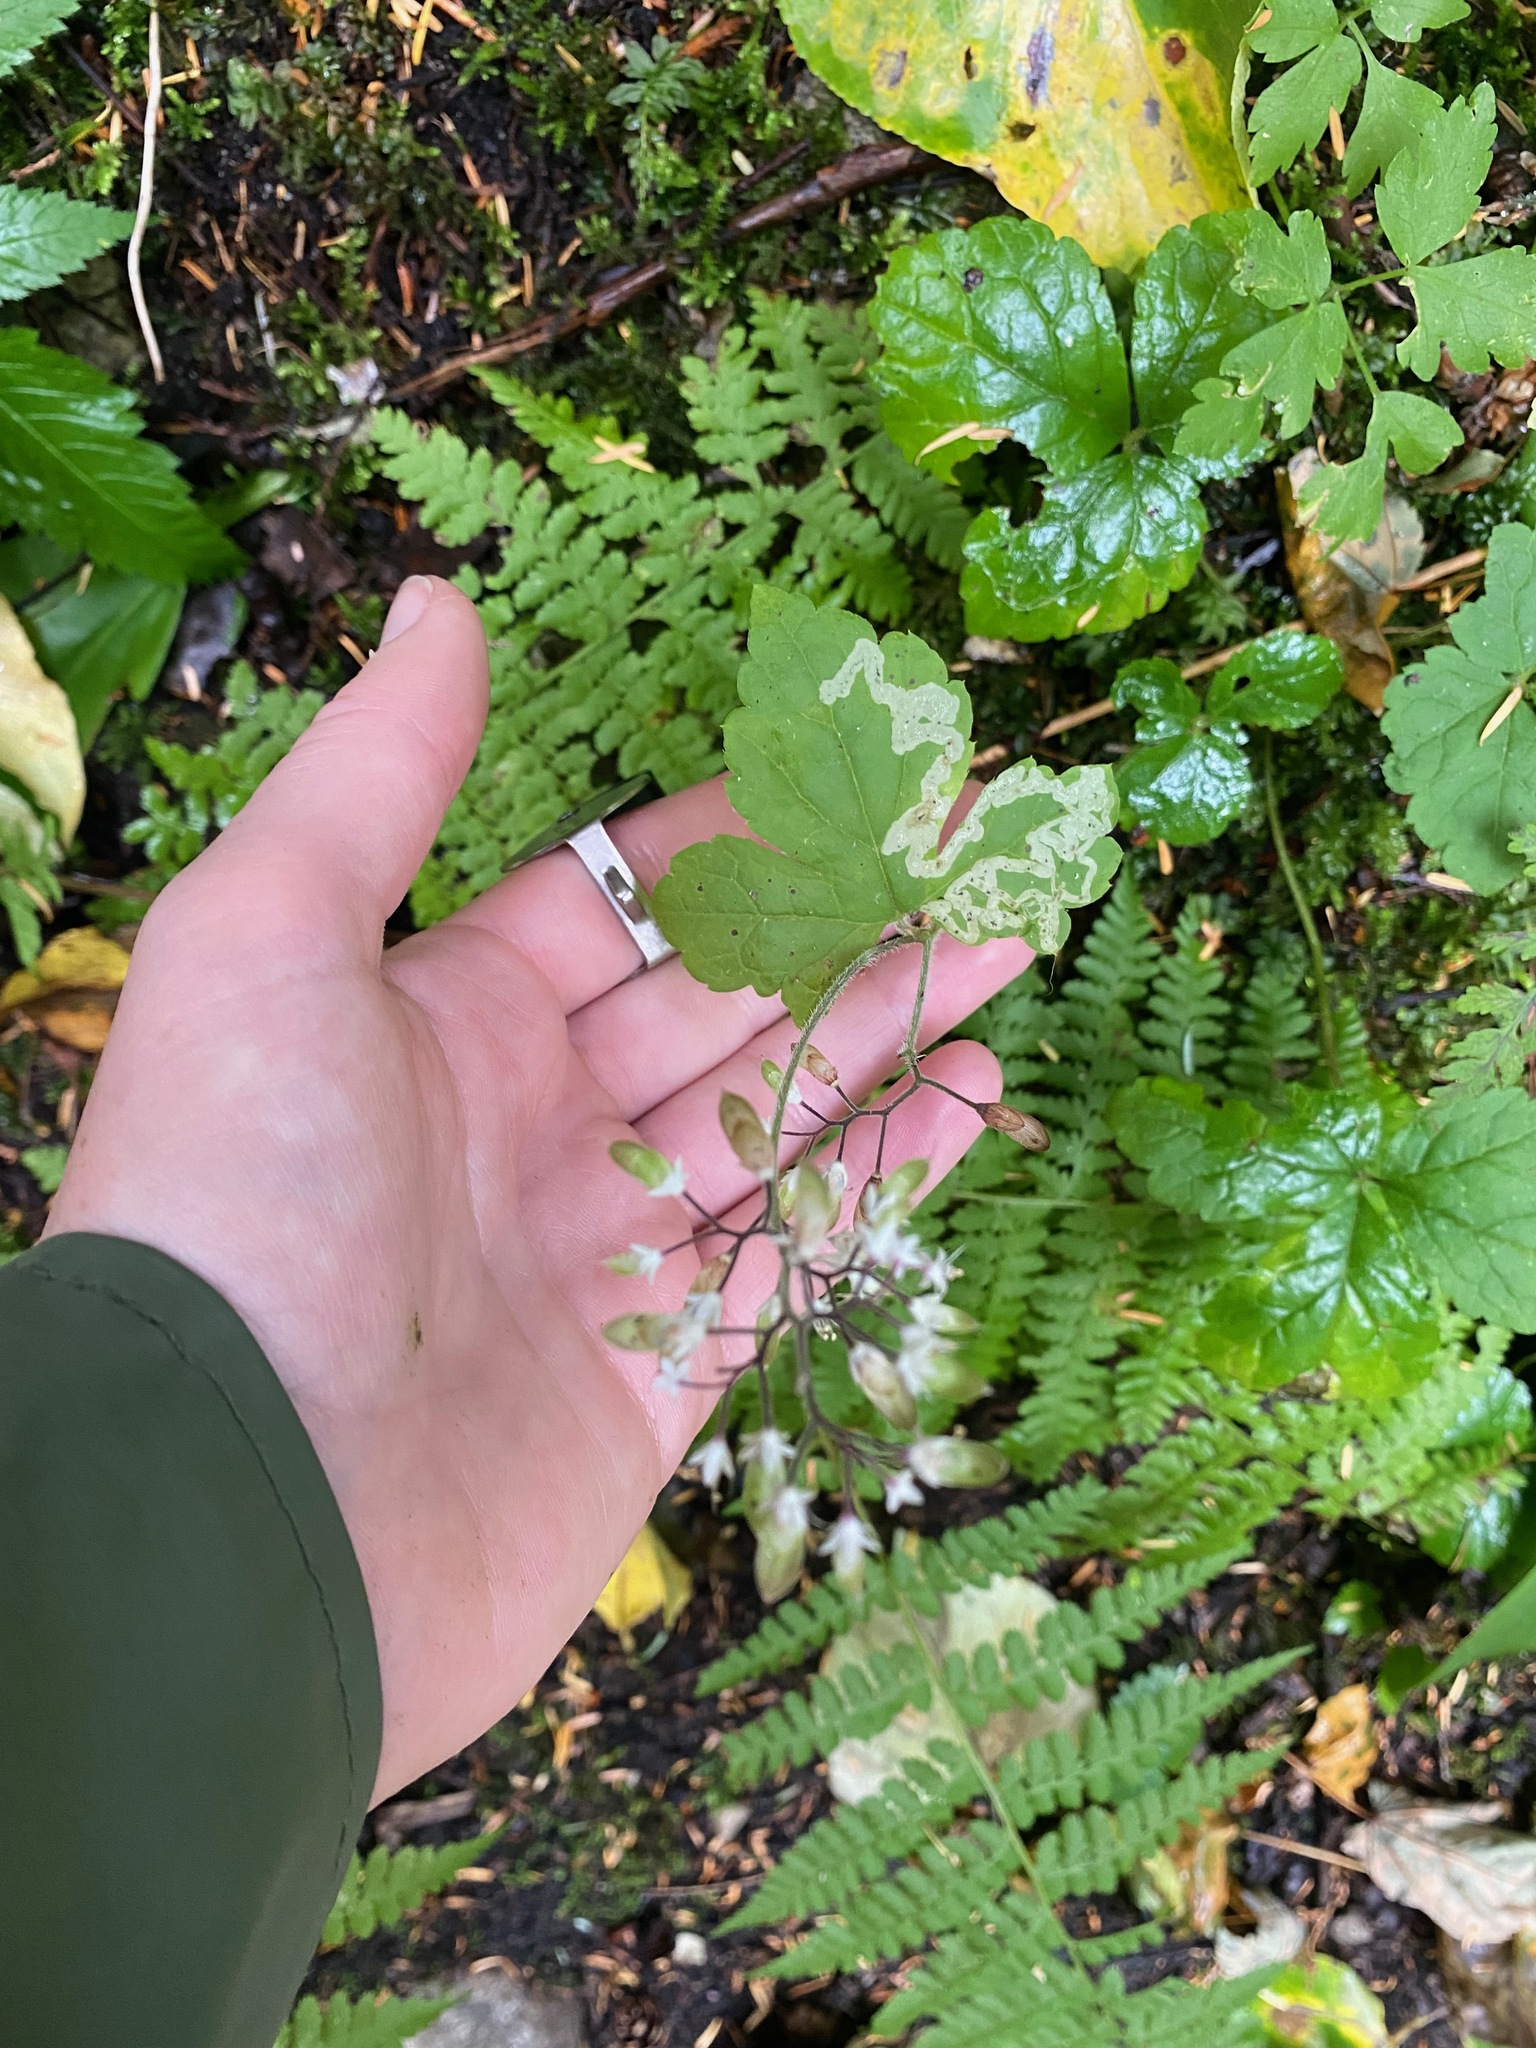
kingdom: Plantae
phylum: Tracheophyta
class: Magnoliopsida
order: Saxifragales
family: Saxifragaceae
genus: Tiarella
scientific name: Tiarella trifoliata
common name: Sugar-scoop
